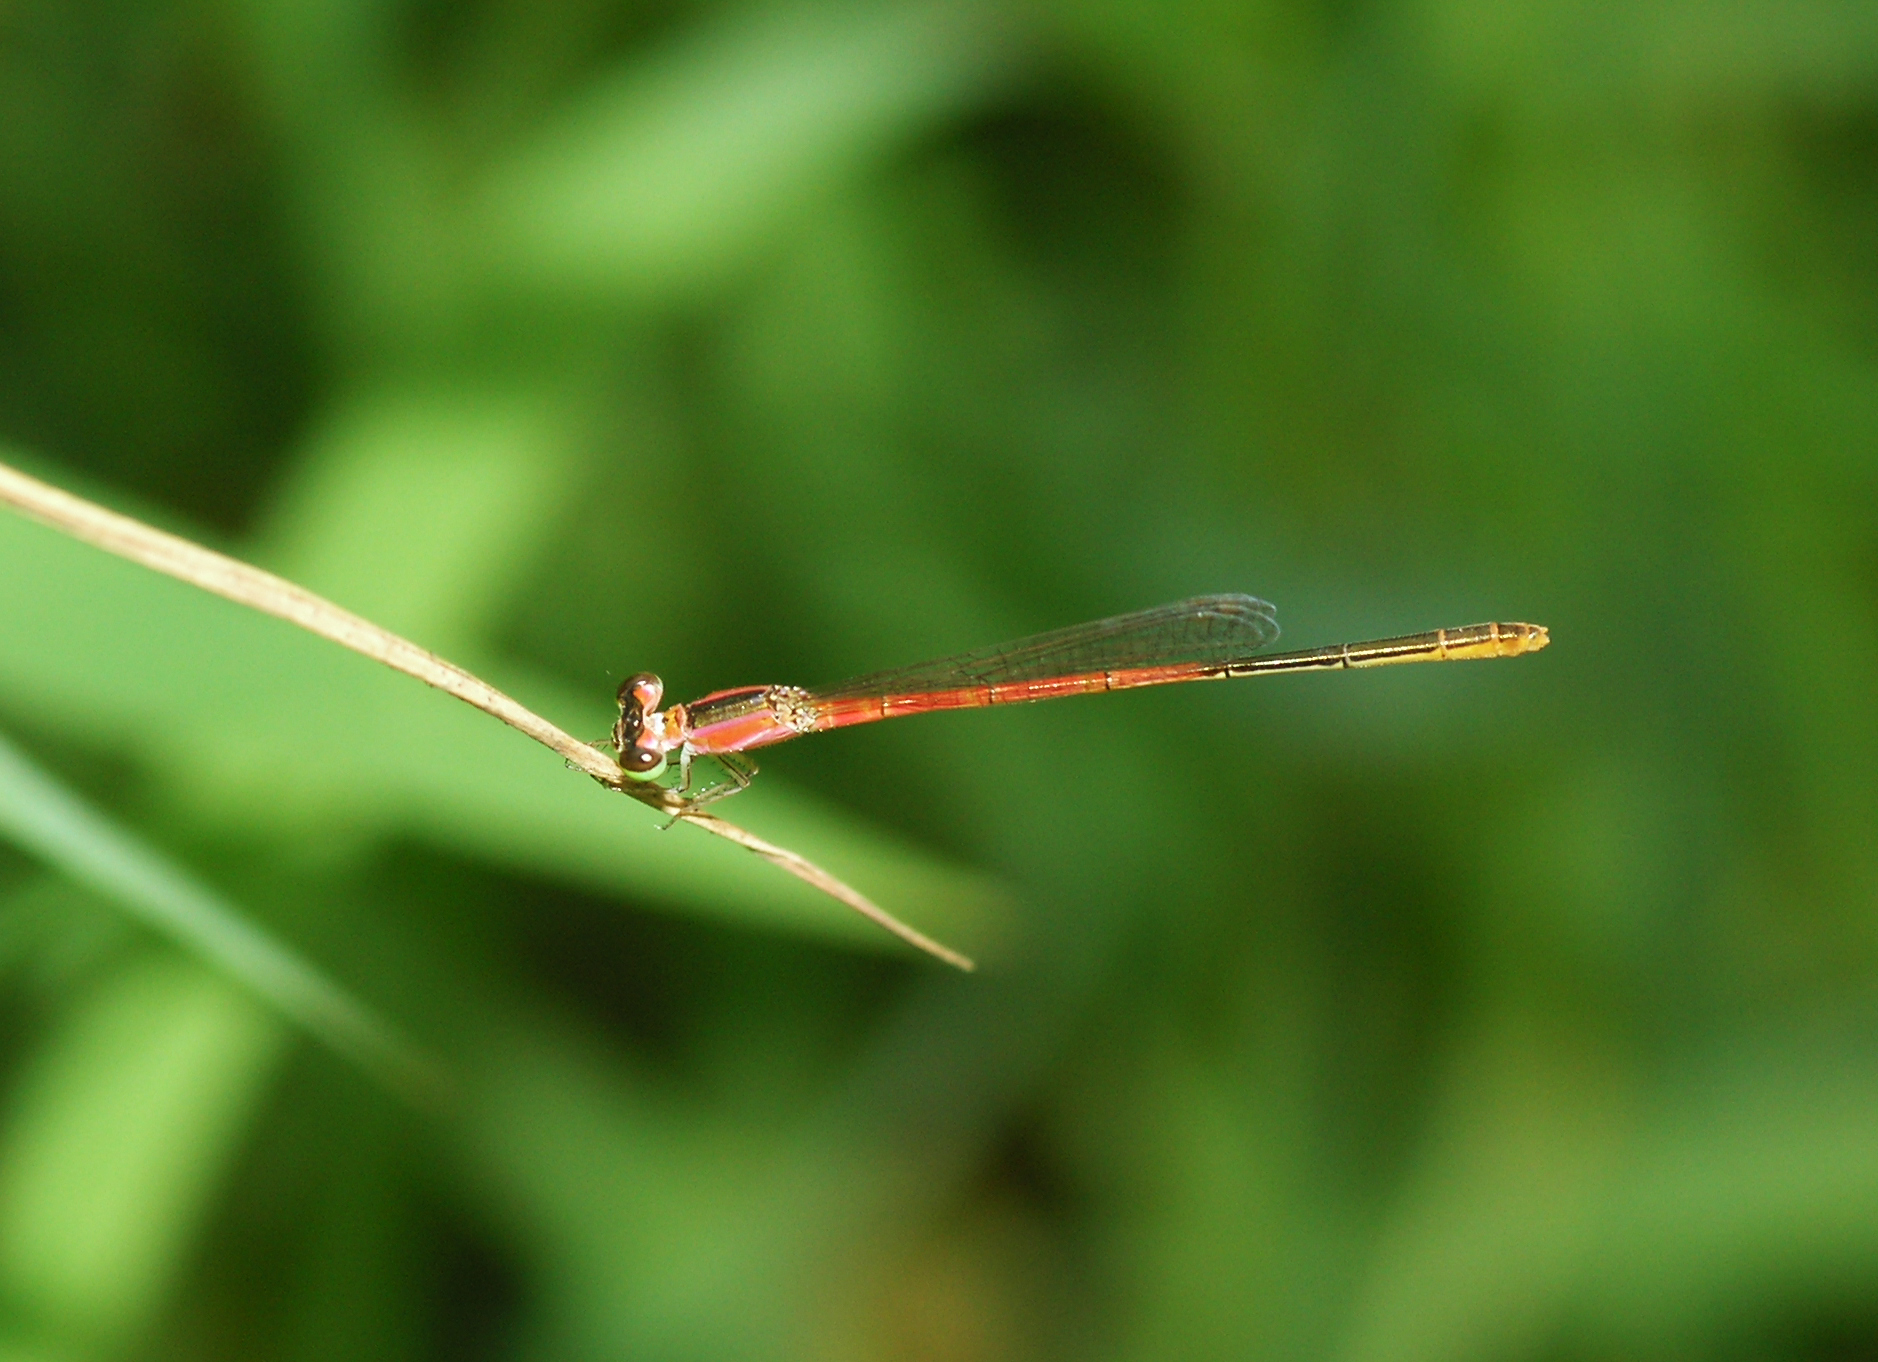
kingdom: Animalia
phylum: Arthropoda
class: Insecta
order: Odonata
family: Coenagrionidae
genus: Agriocnemis
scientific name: Agriocnemis femina
